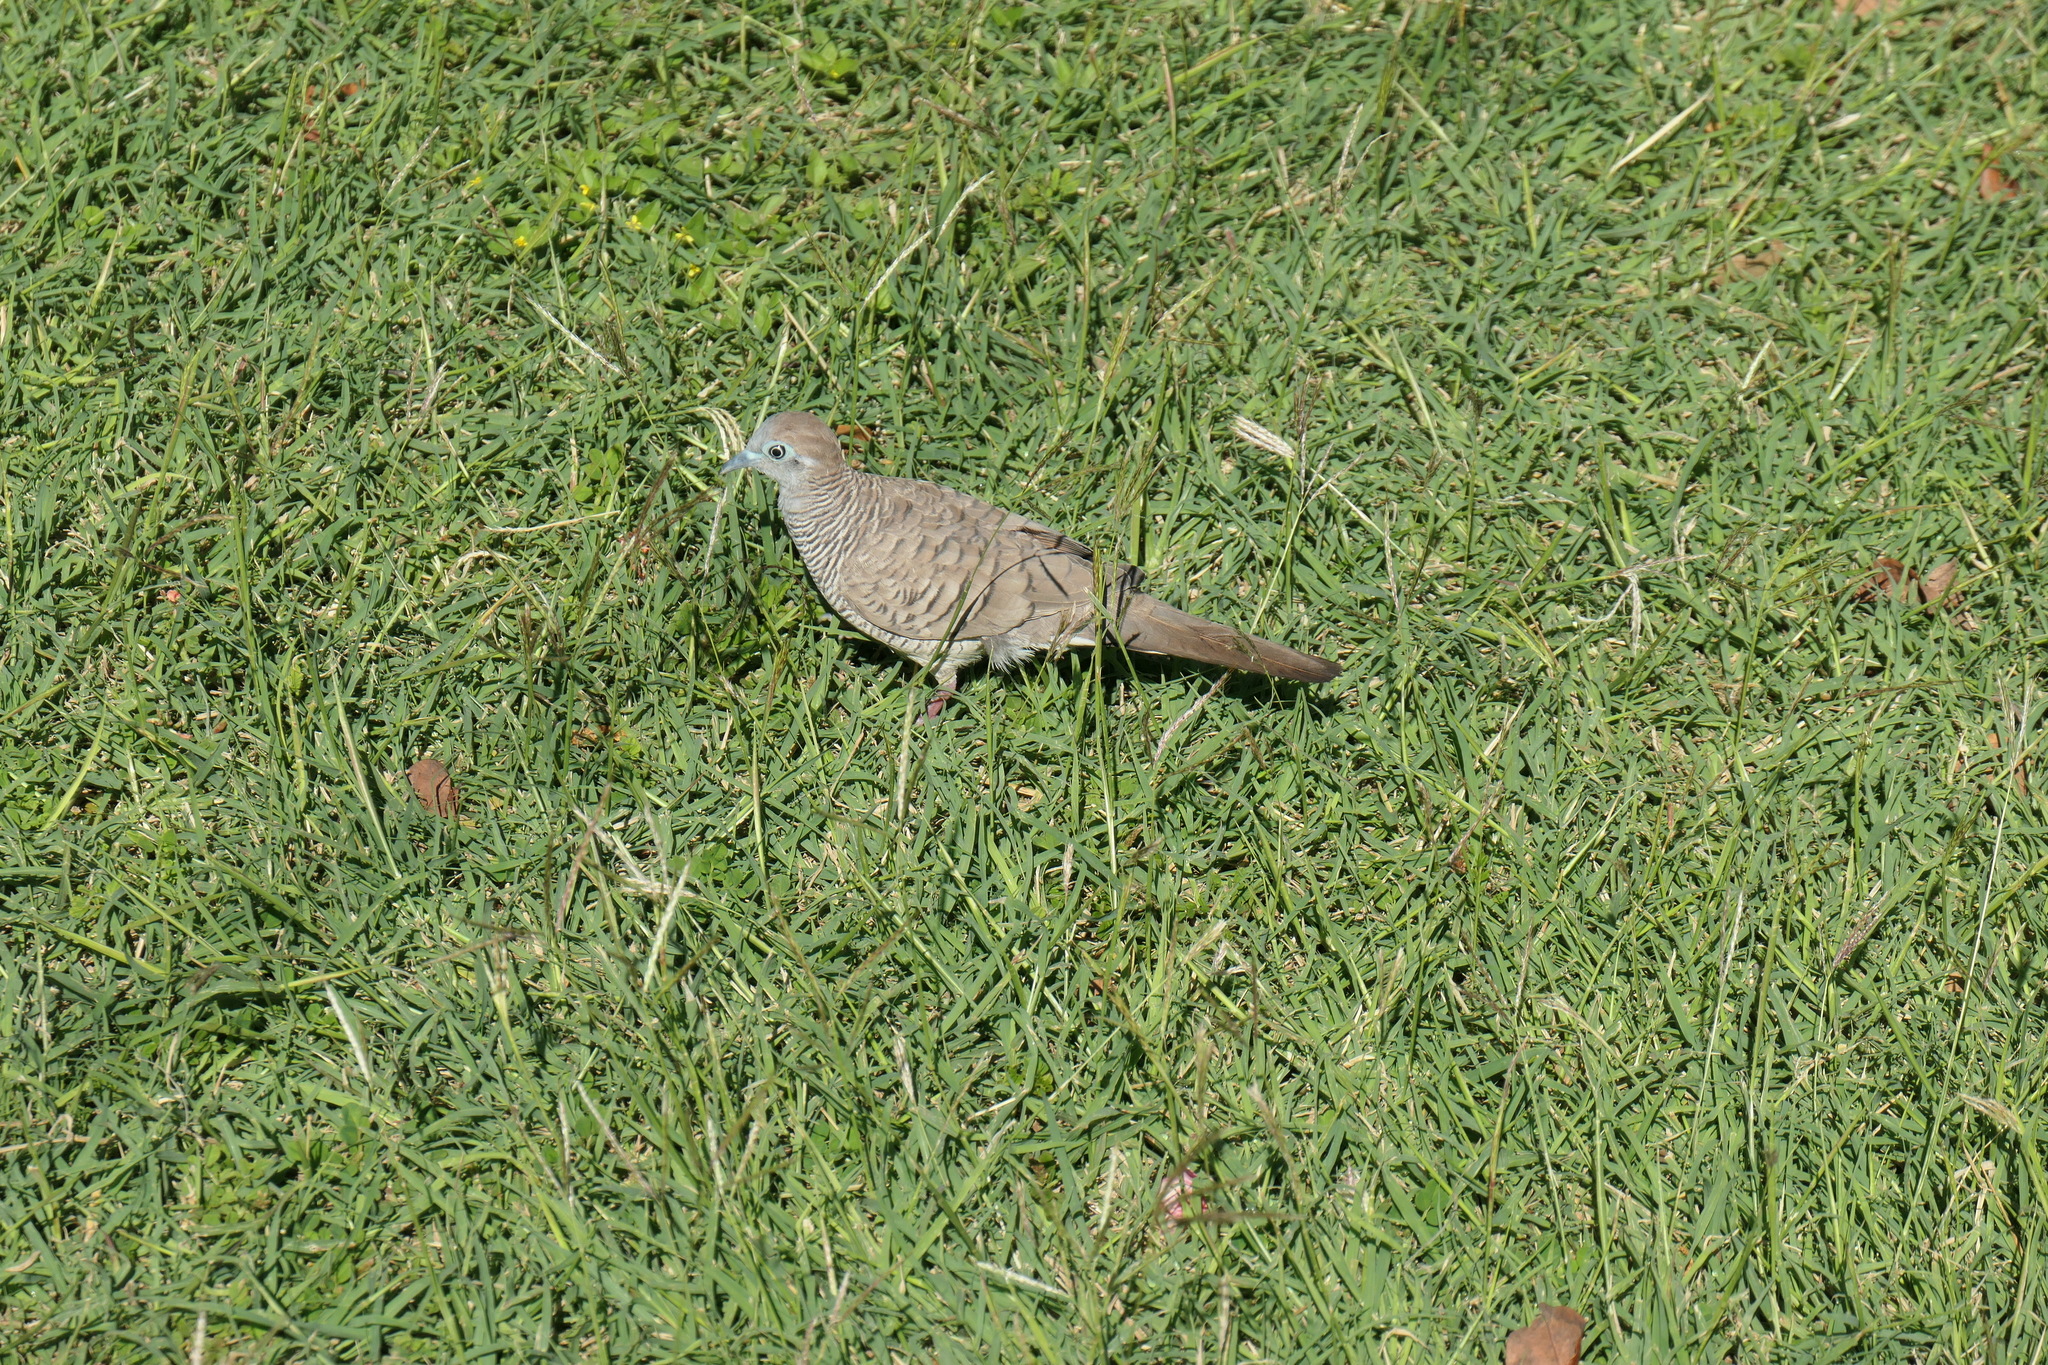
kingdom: Animalia
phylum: Chordata
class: Aves
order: Columbiformes
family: Columbidae
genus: Geopelia
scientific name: Geopelia striata
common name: Zebra dove
